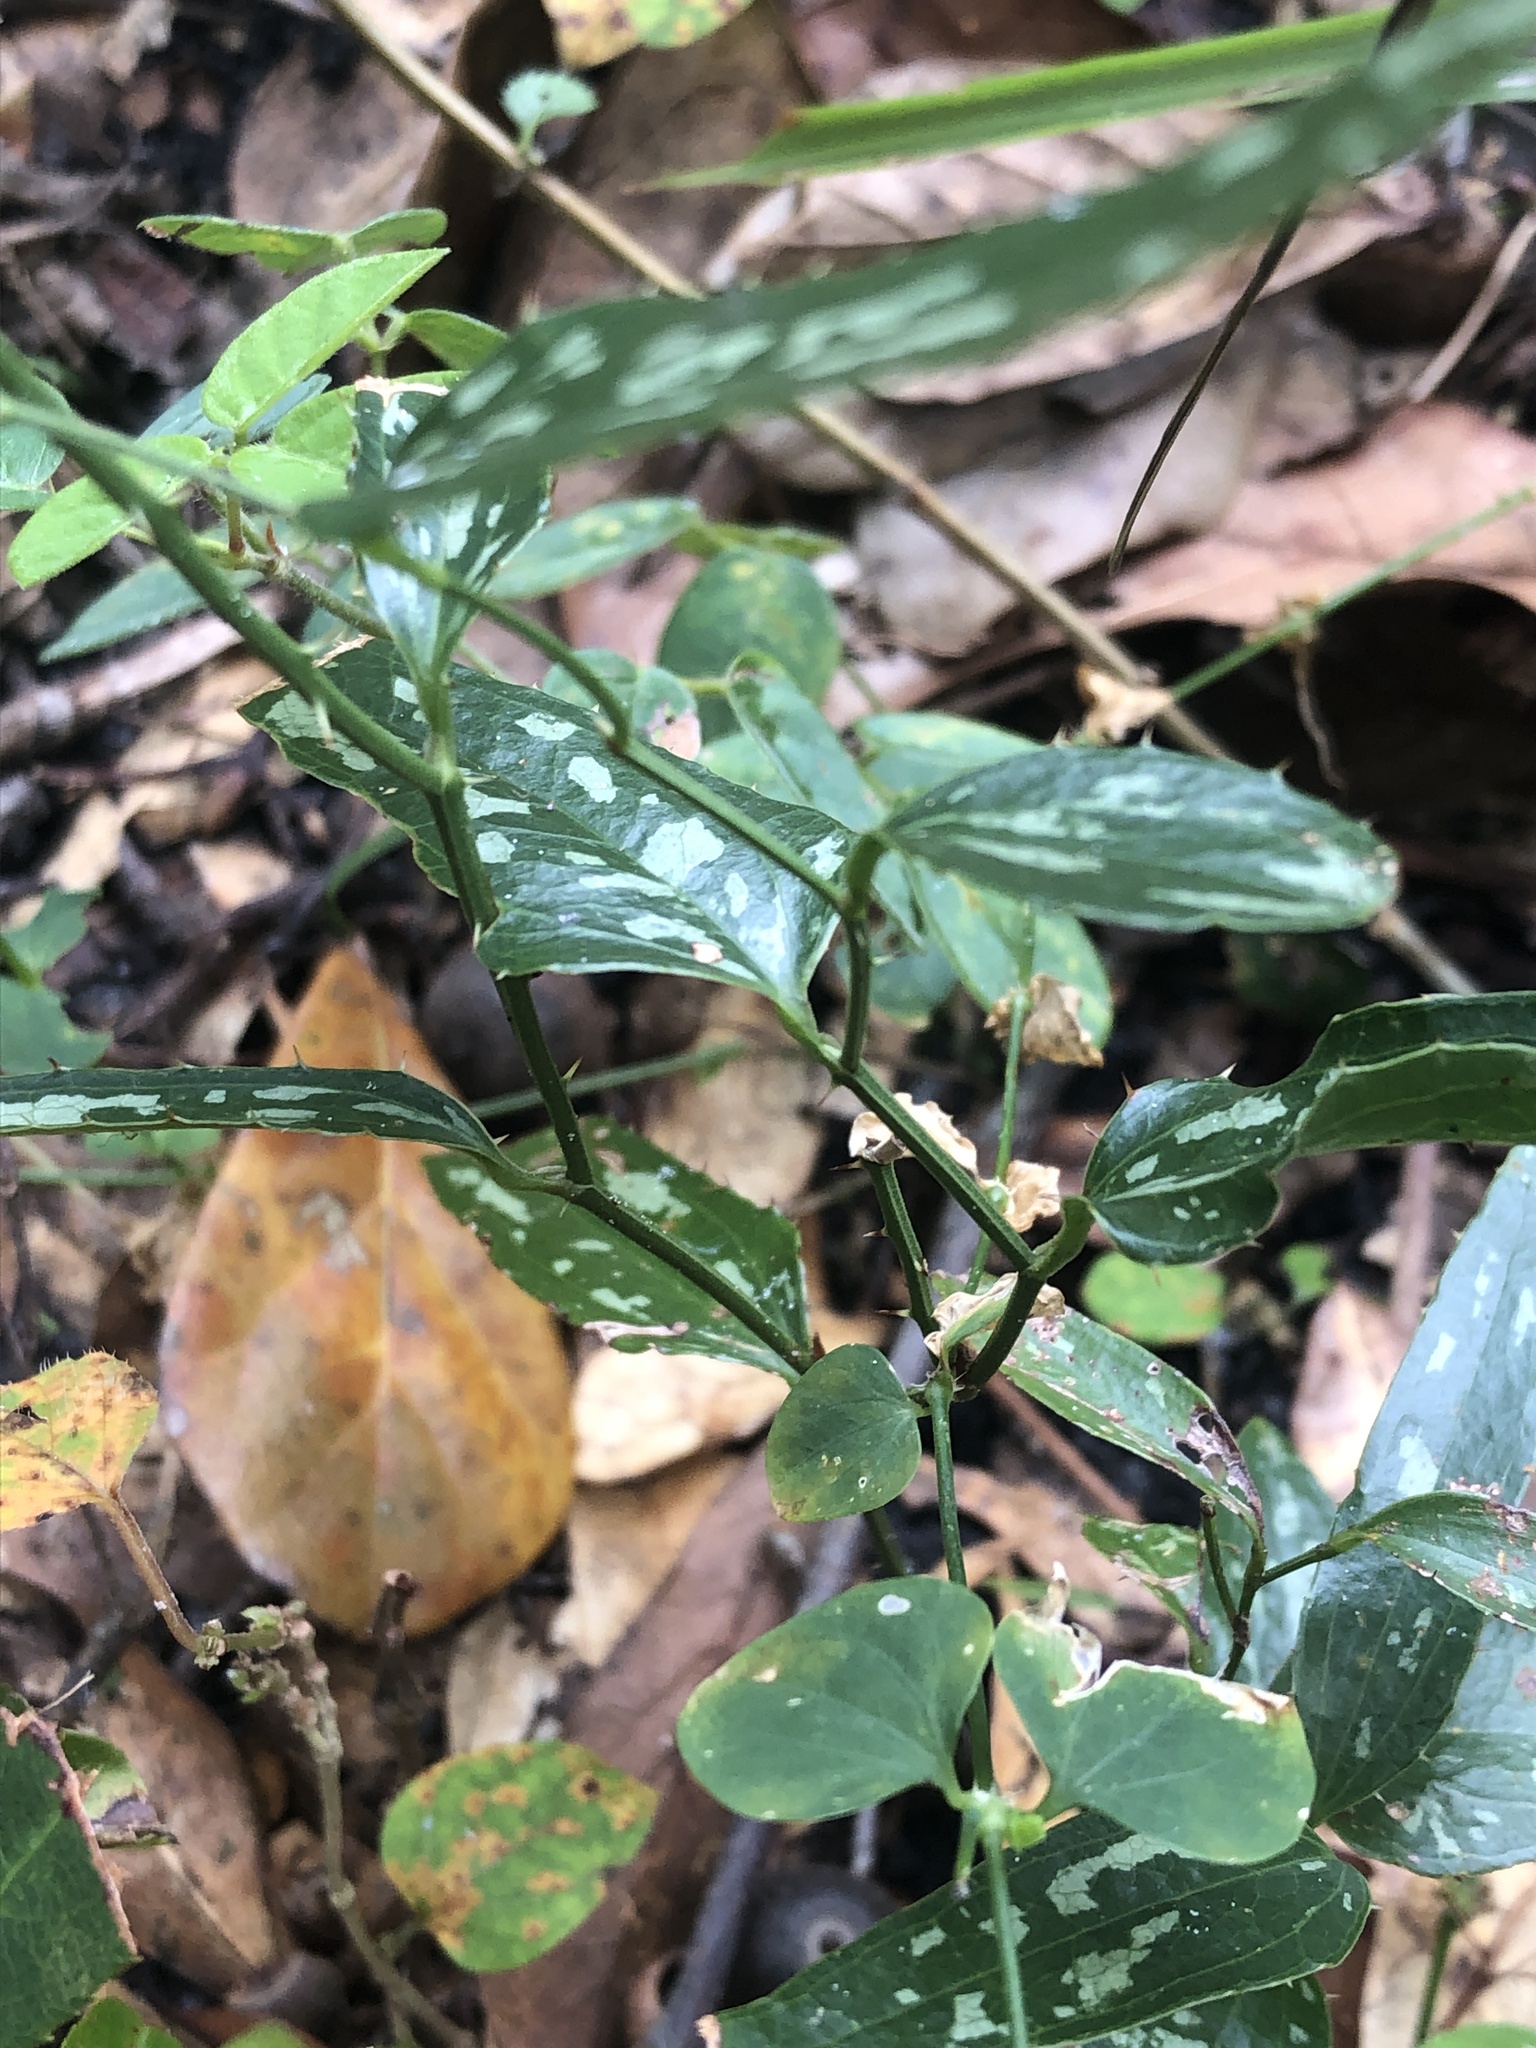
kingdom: Plantae
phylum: Tracheophyta
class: Liliopsida
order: Liliales
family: Smilacaceae
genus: Smilax
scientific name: Smilax bona-nox
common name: Catbrier
